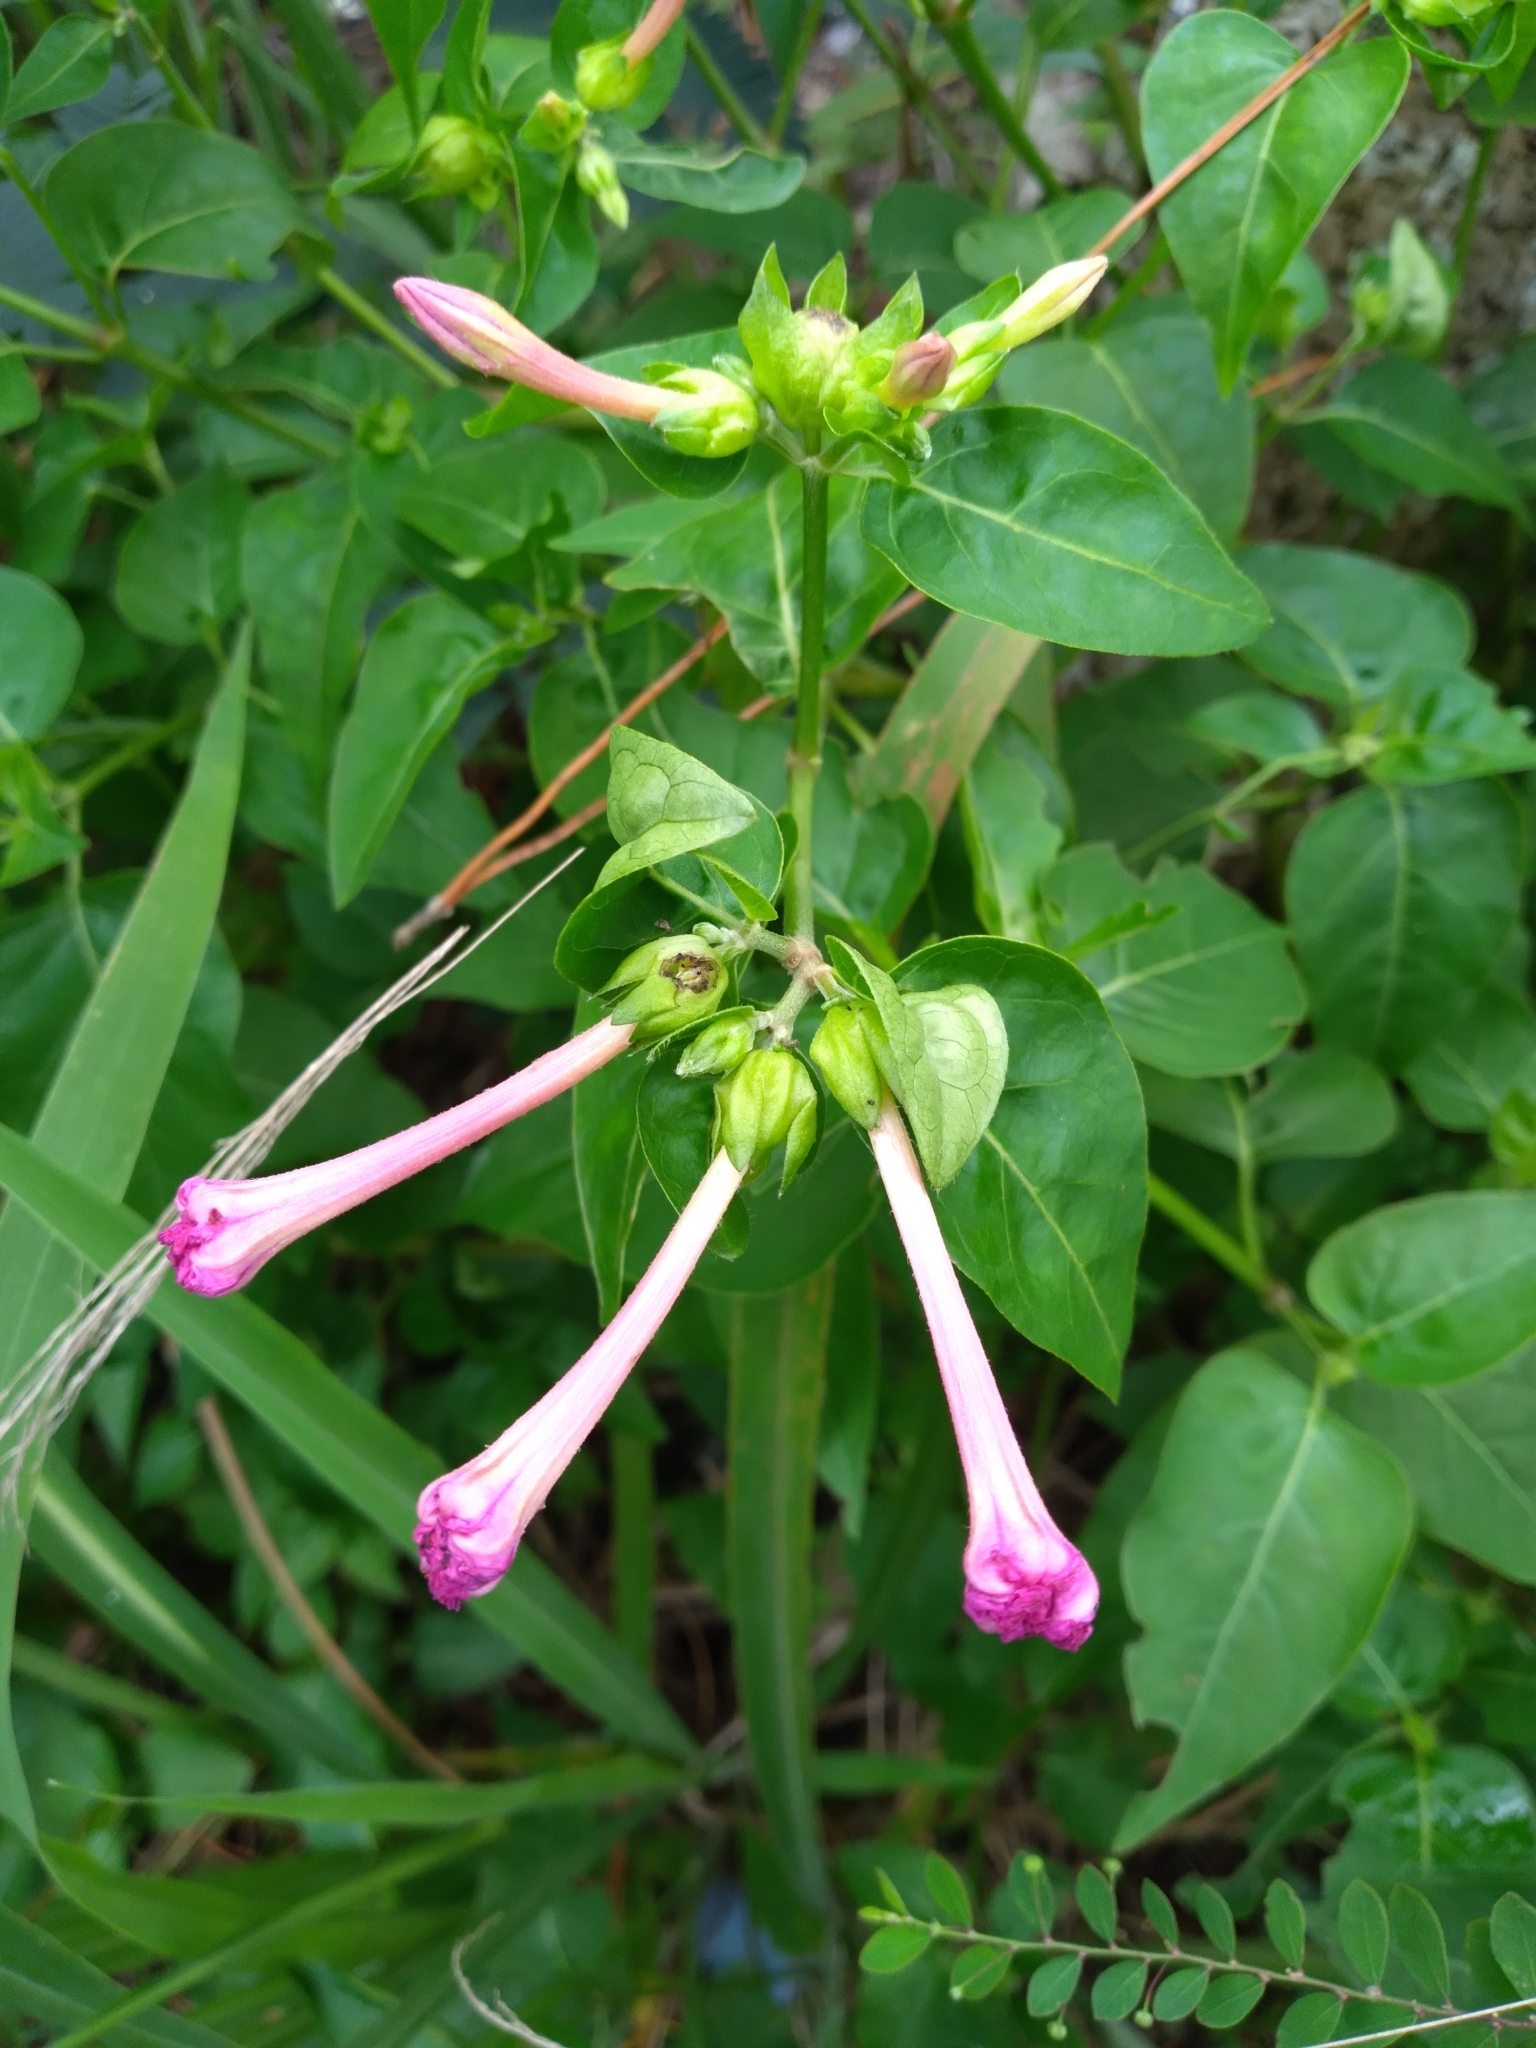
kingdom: Plantae
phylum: Tracheophyta
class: Magnoliopsida
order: Caryophyllales
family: Nyctaginaceae
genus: Mirabilis
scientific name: Mirabilis jalapa
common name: Marvel-of-peru
